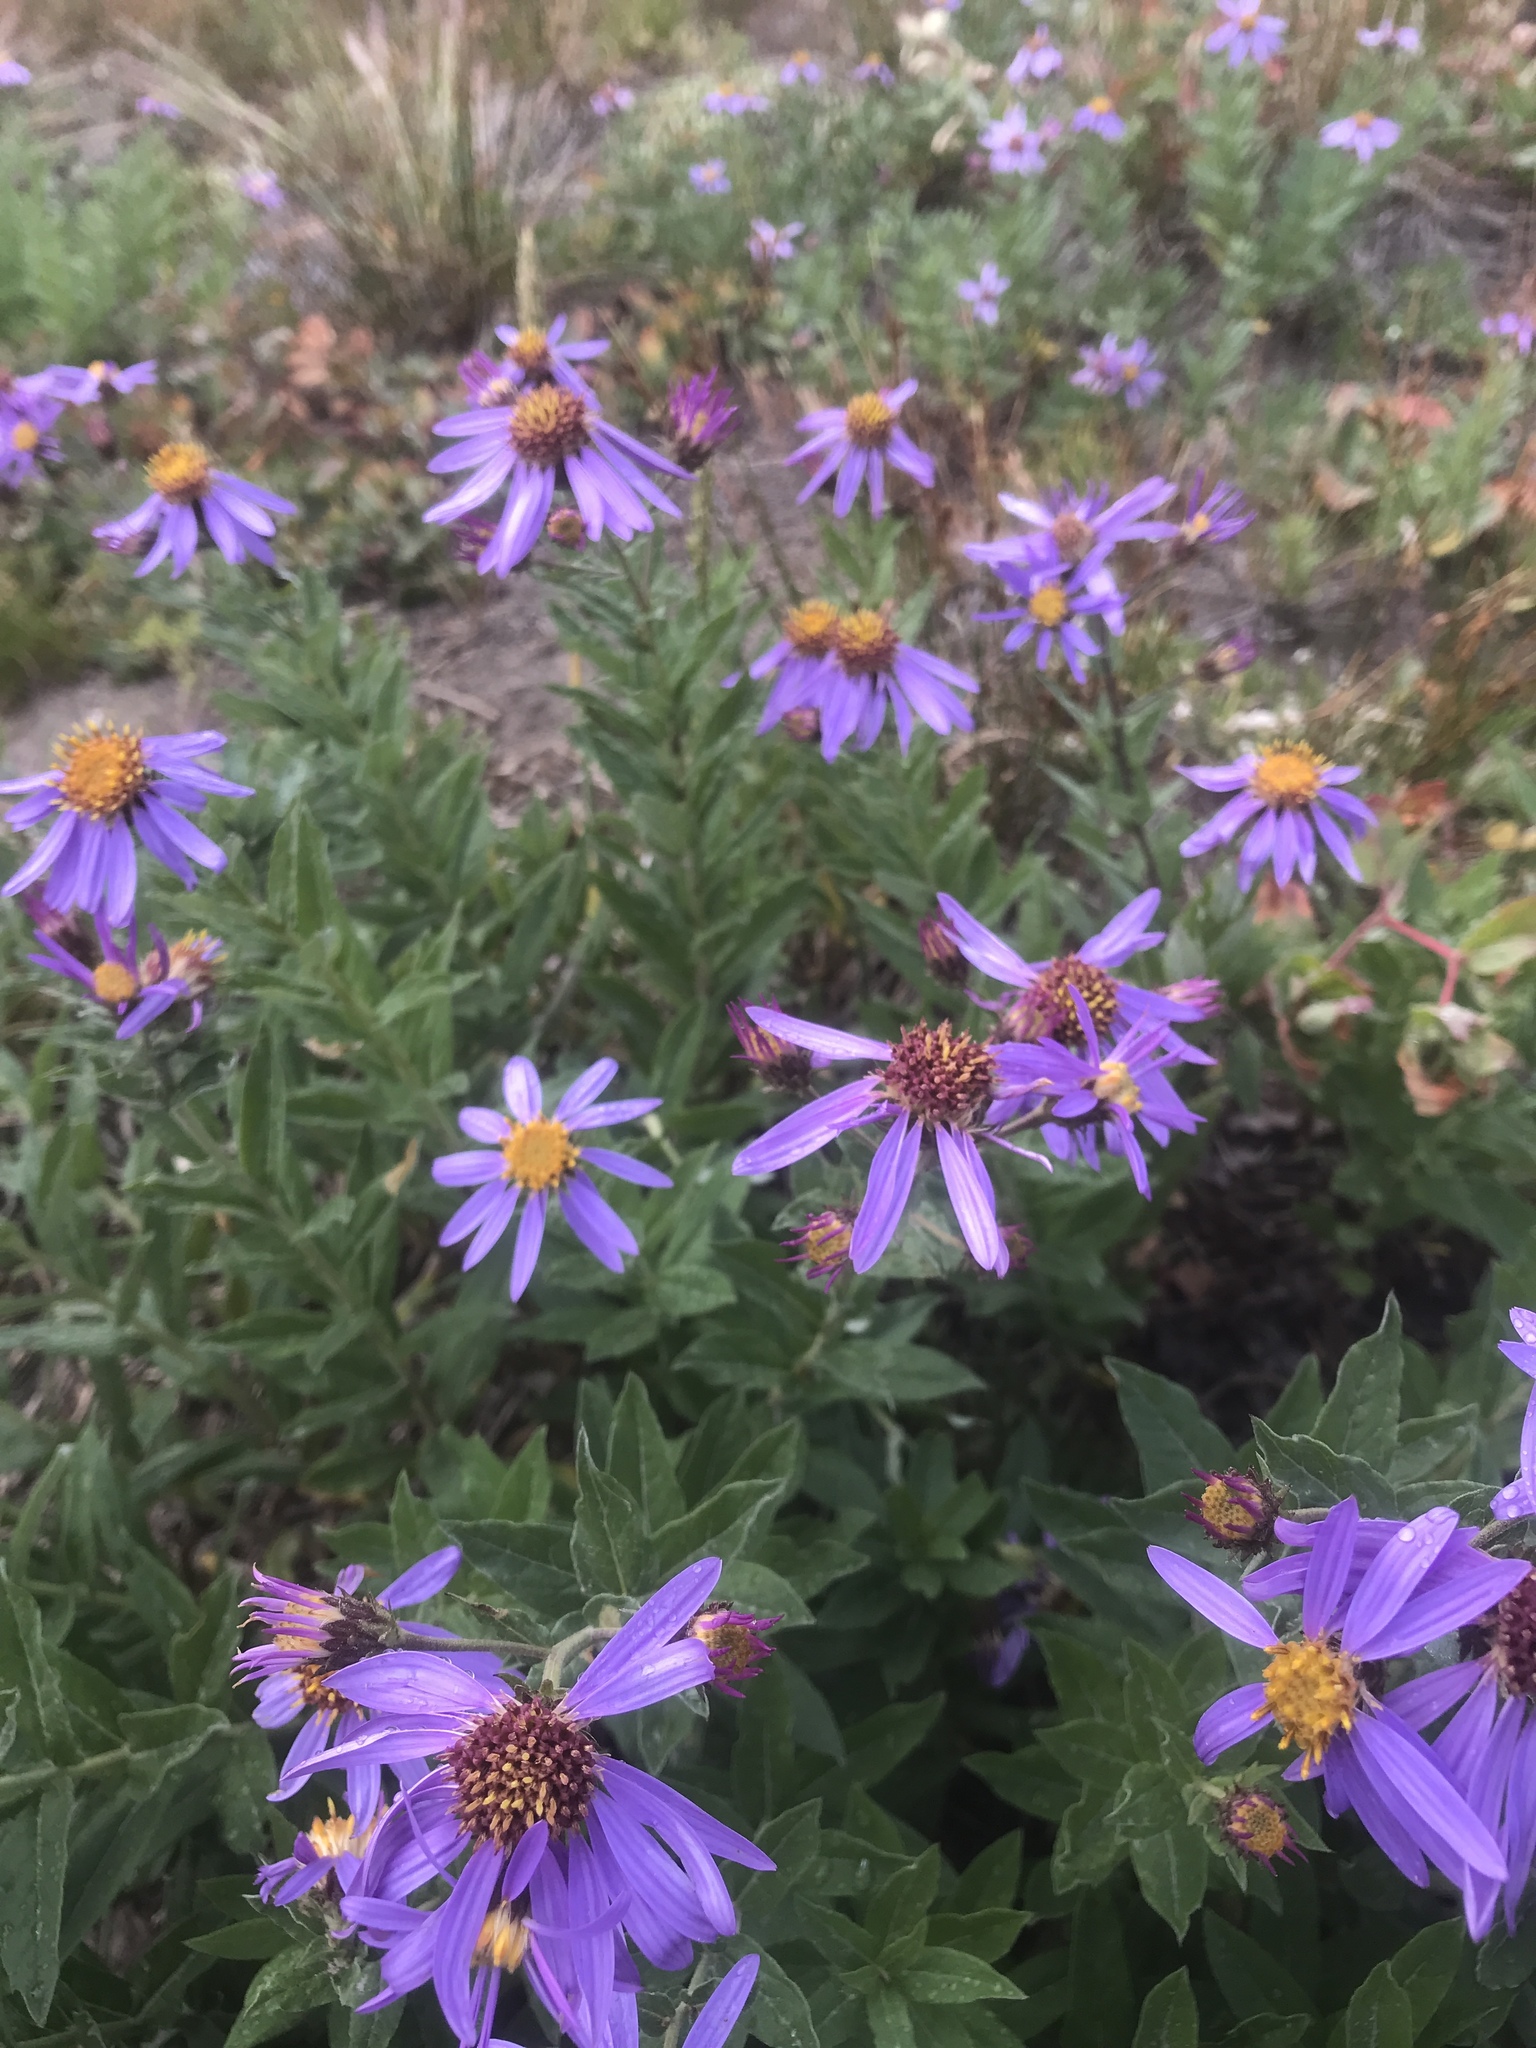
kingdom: Plantae
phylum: Tracheophyta
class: Magnoliopsida
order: Asterales
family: Asteraceae
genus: Eucephalus
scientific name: Eucephalus ledophyllus
